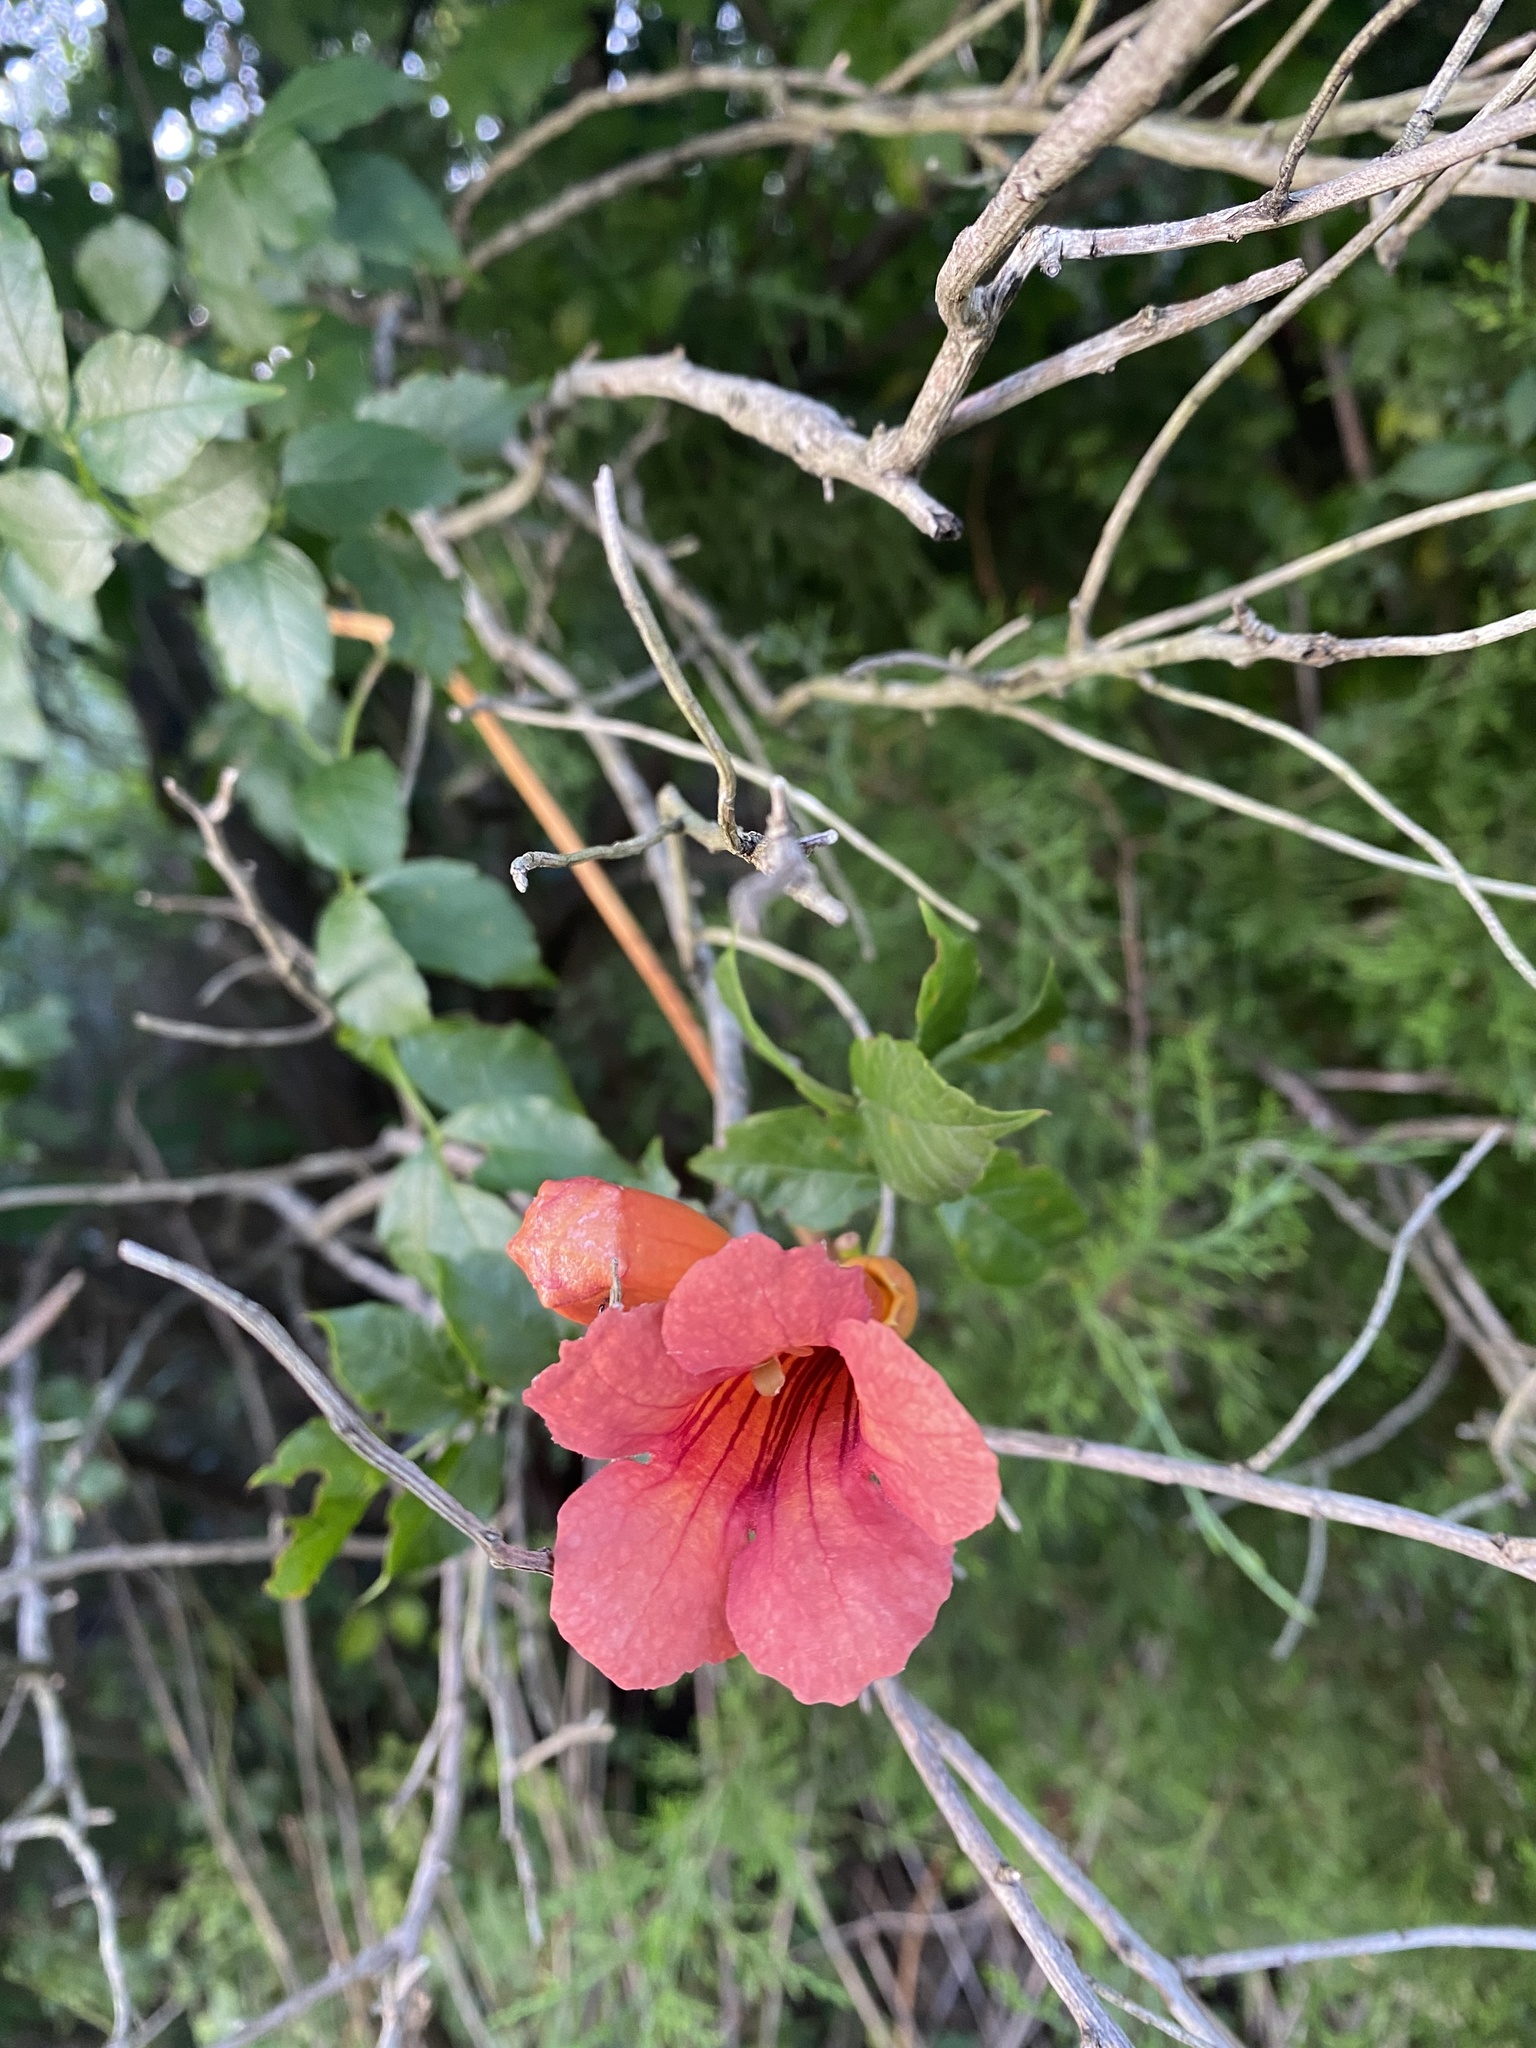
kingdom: Plantae
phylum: Tracheophyta
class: Magnoliopsida
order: Lamiales
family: Bignoniaceae
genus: Campsis
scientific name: Campsis radicans
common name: Trumpet-creeper
